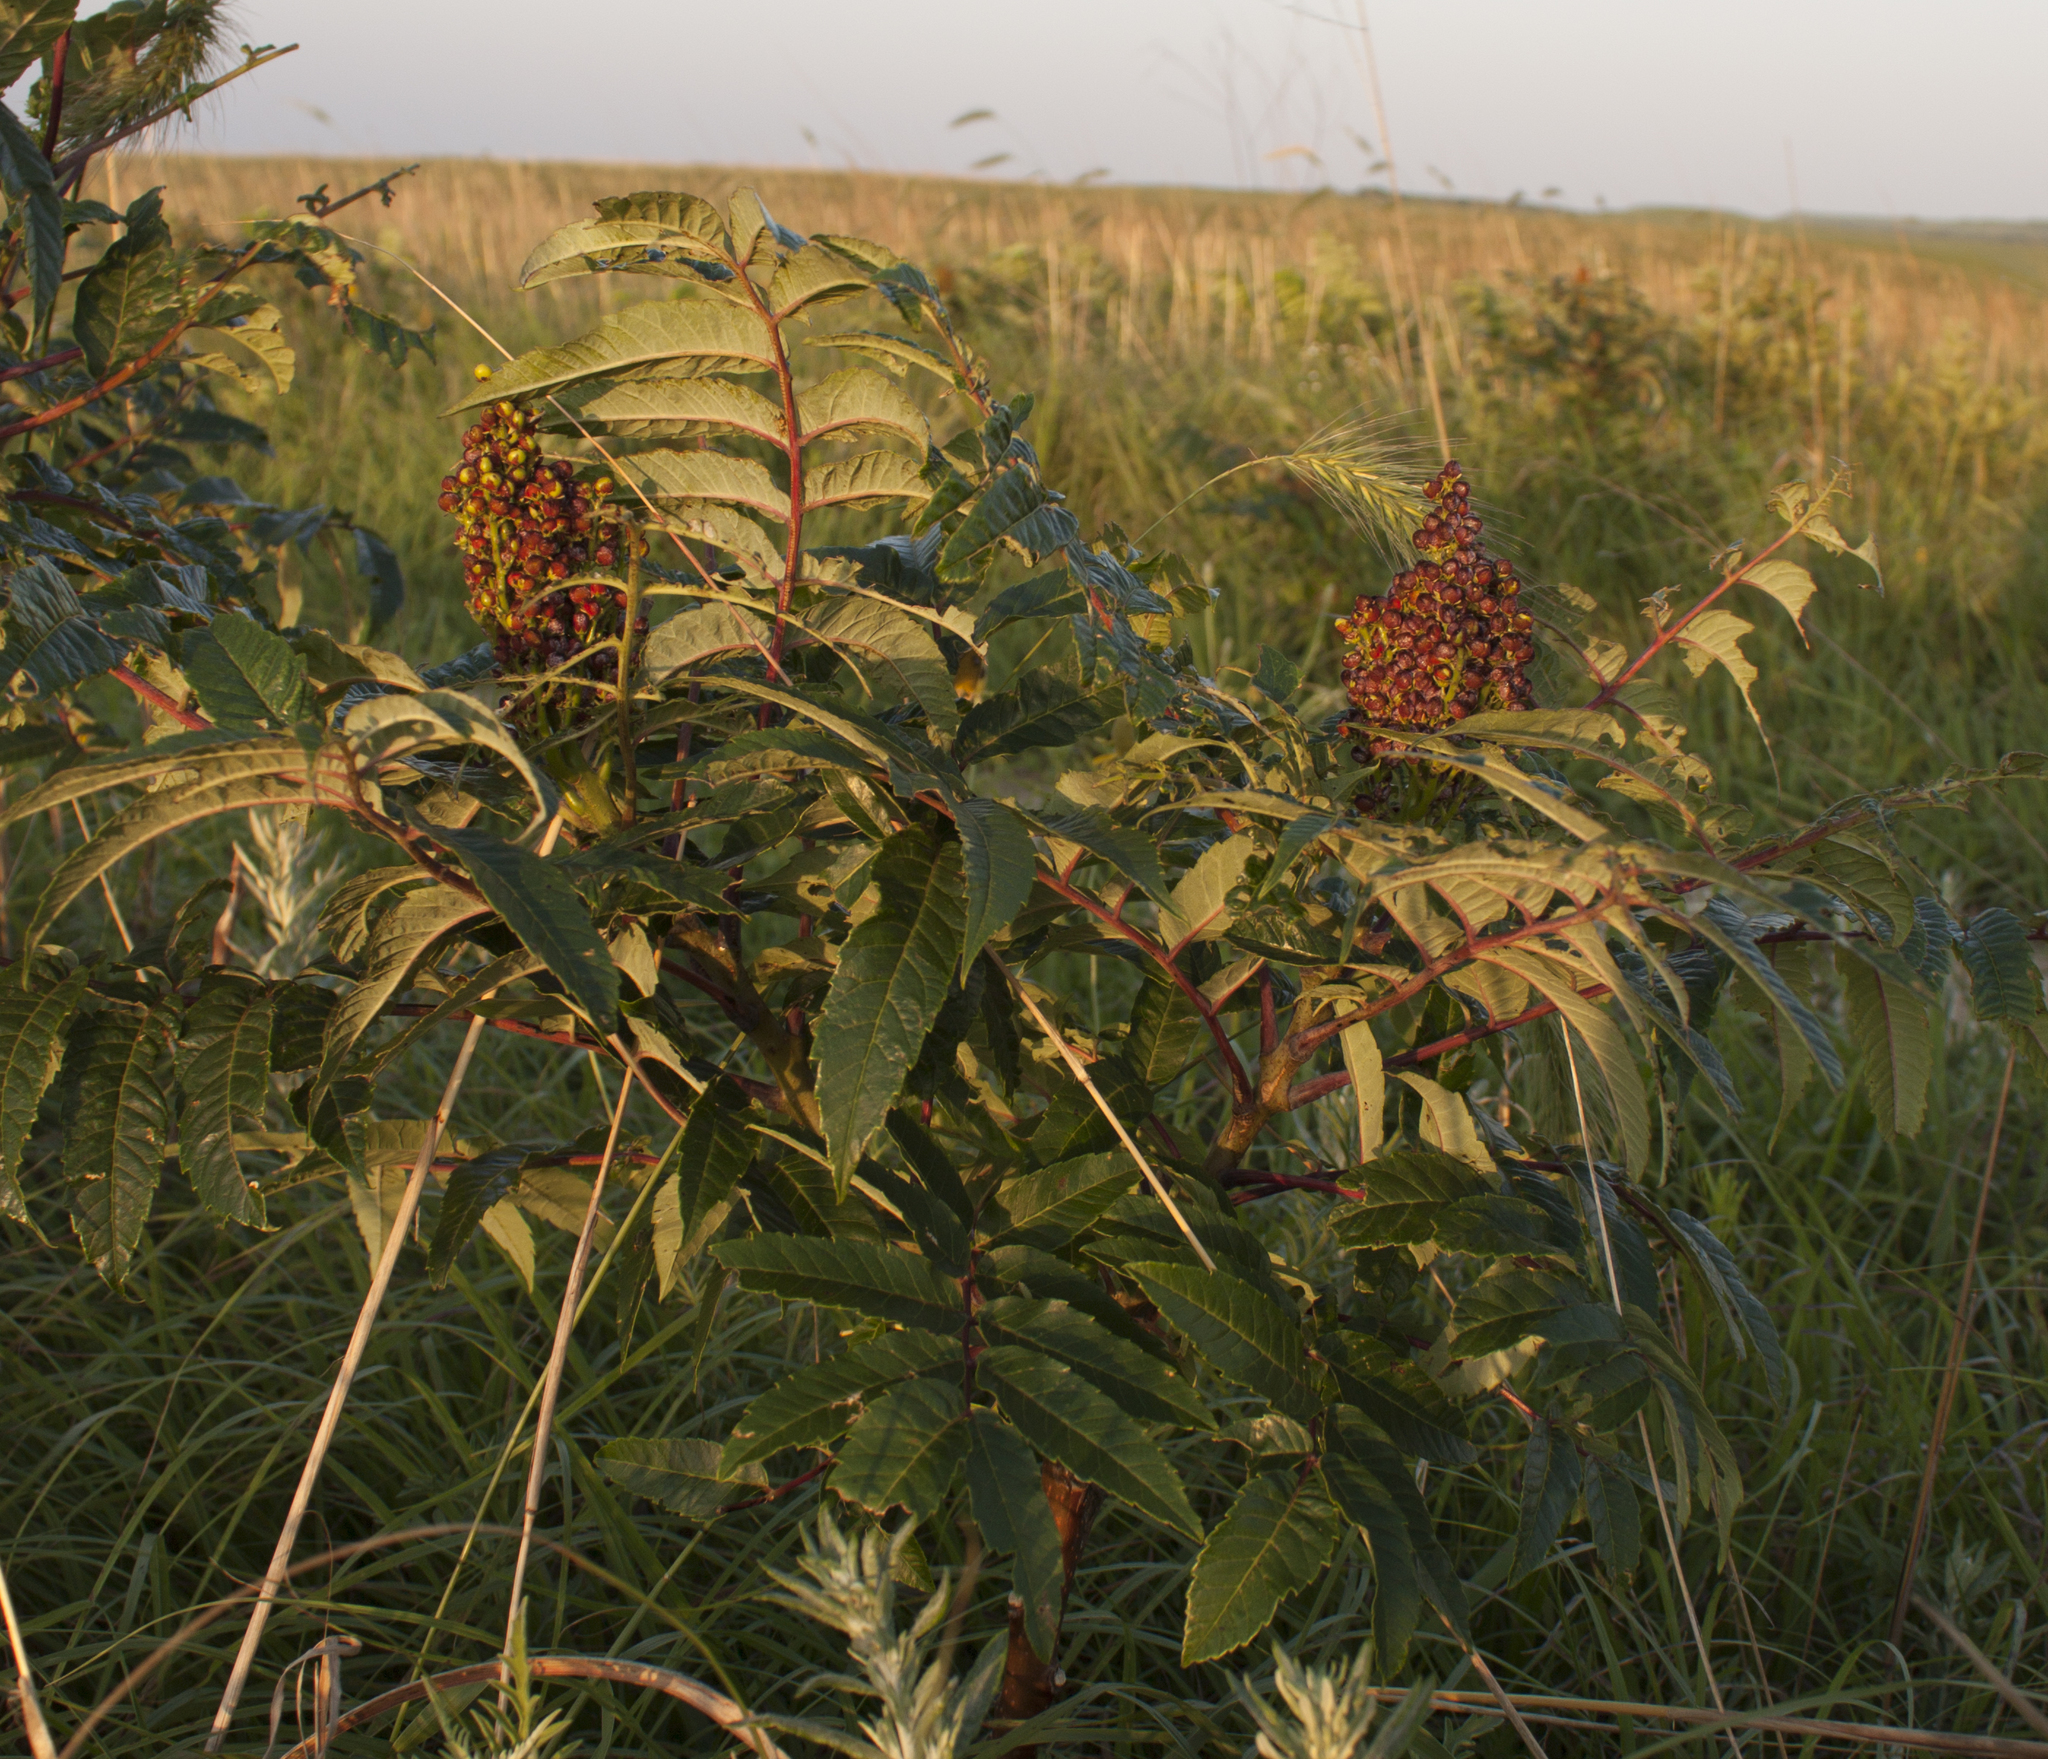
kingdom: Plantae
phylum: Tracheophyta
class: Magnoliopsida
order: Sapindales
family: Anacardiaceae
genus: Rhus
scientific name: Rhus glabra
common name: Scarlet sumac
